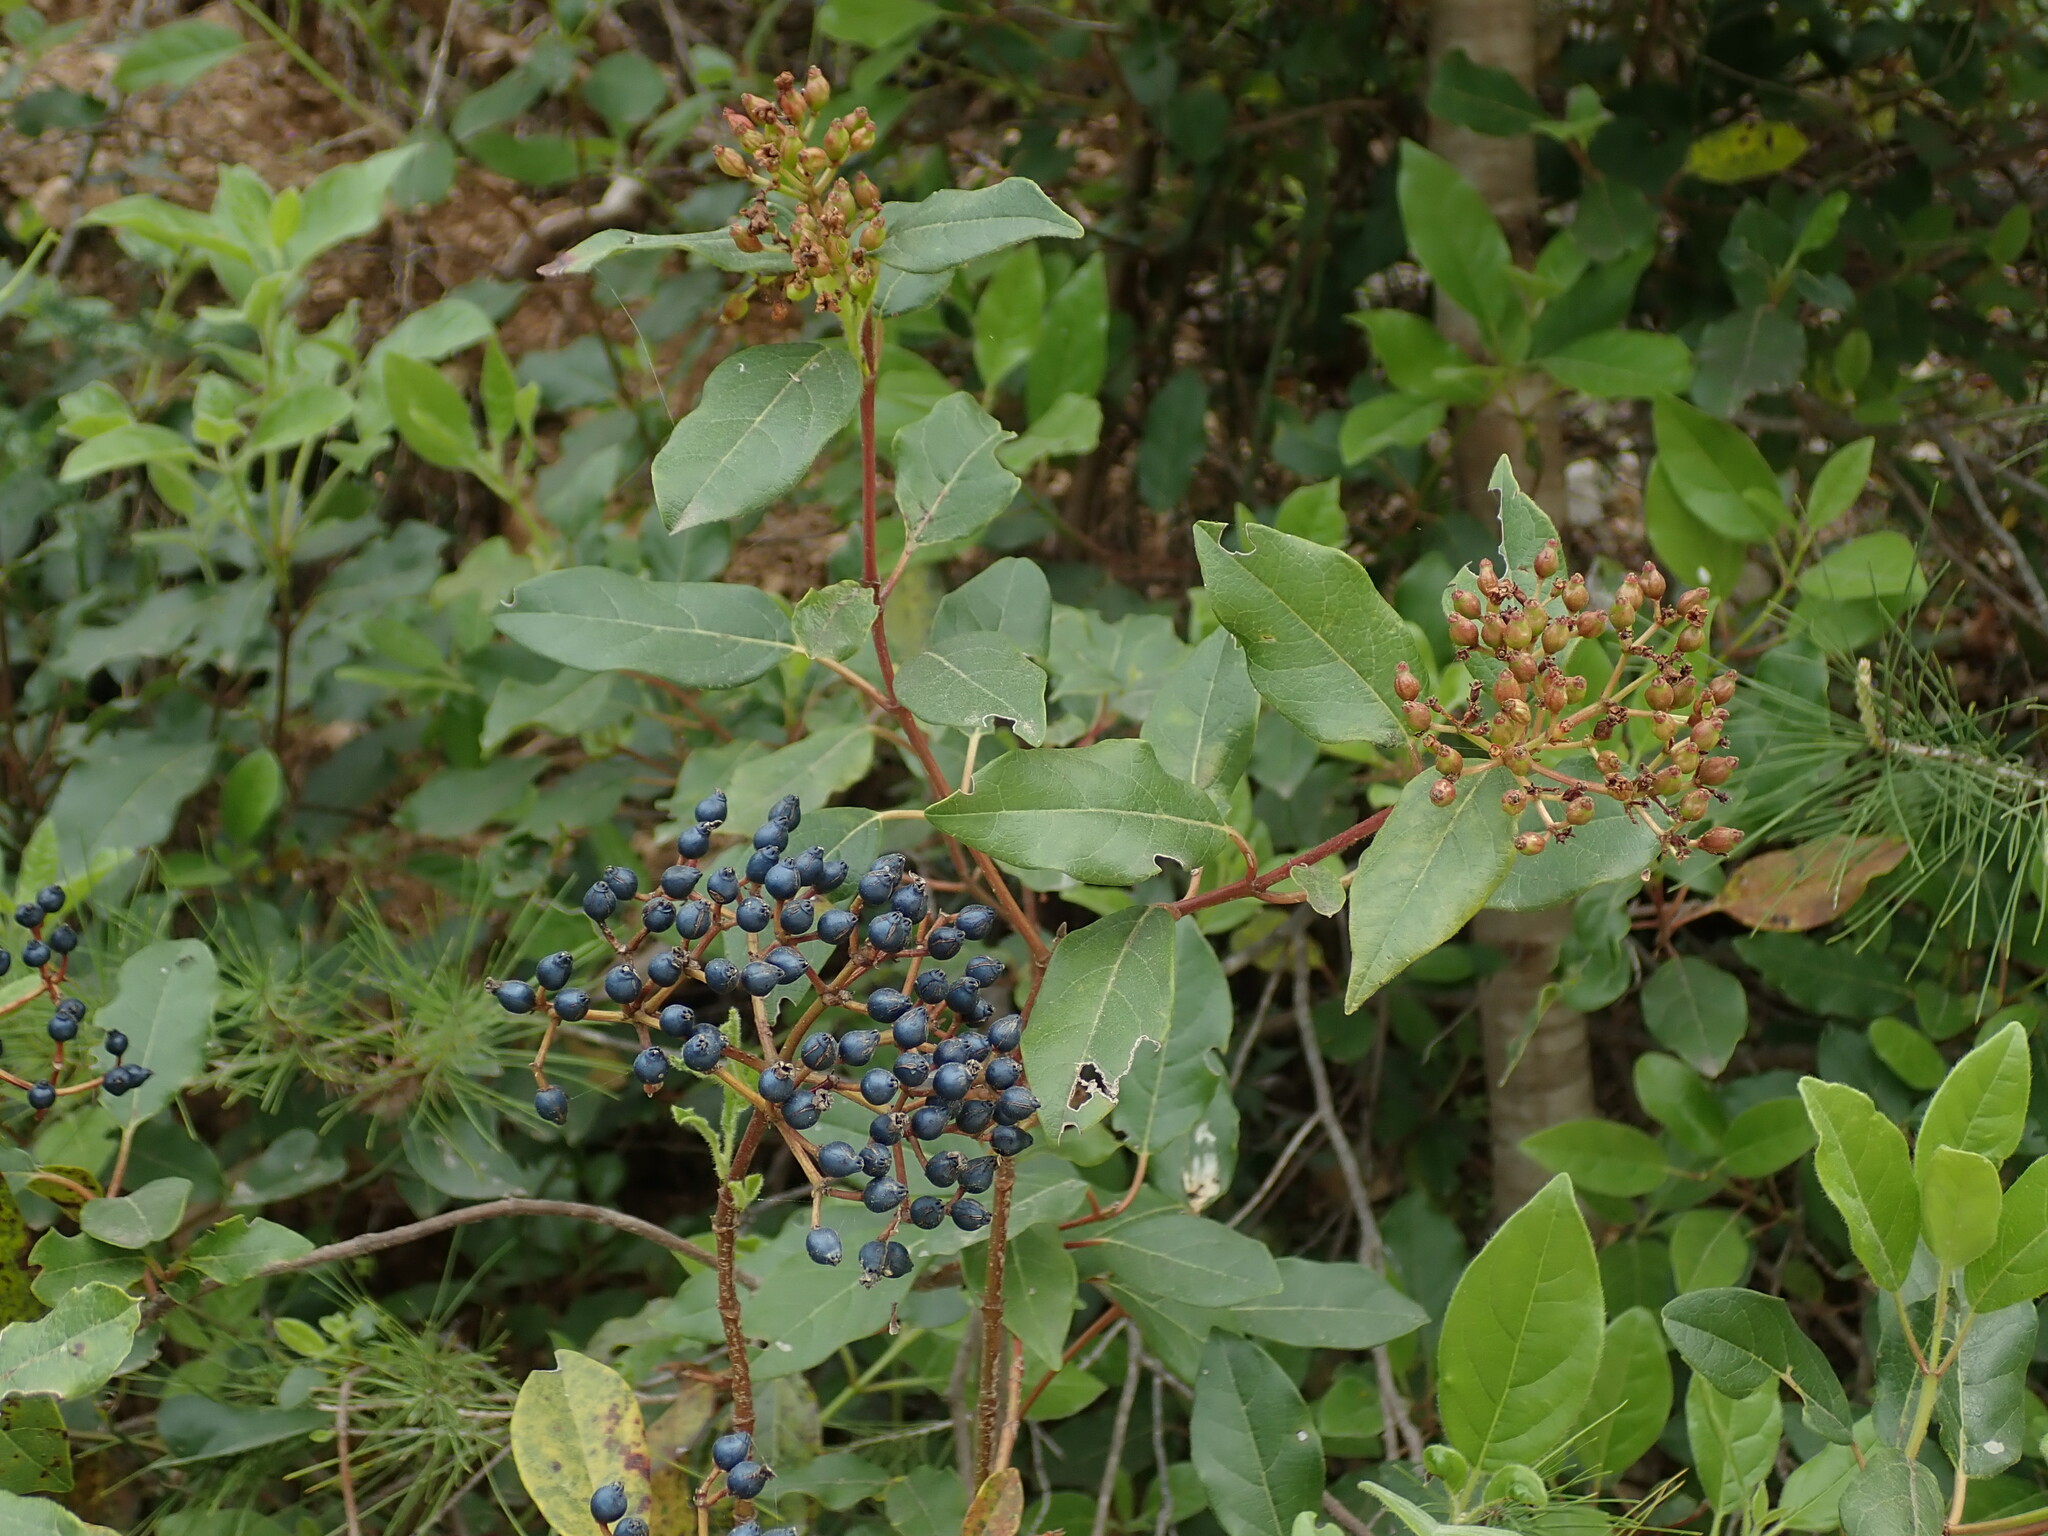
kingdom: Plantae
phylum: Tracheophyta
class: Magnoliopsida
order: Dipsacales
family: Viburnaceae
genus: Viburnum
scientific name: Viburnum tinus
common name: Laurustinus
